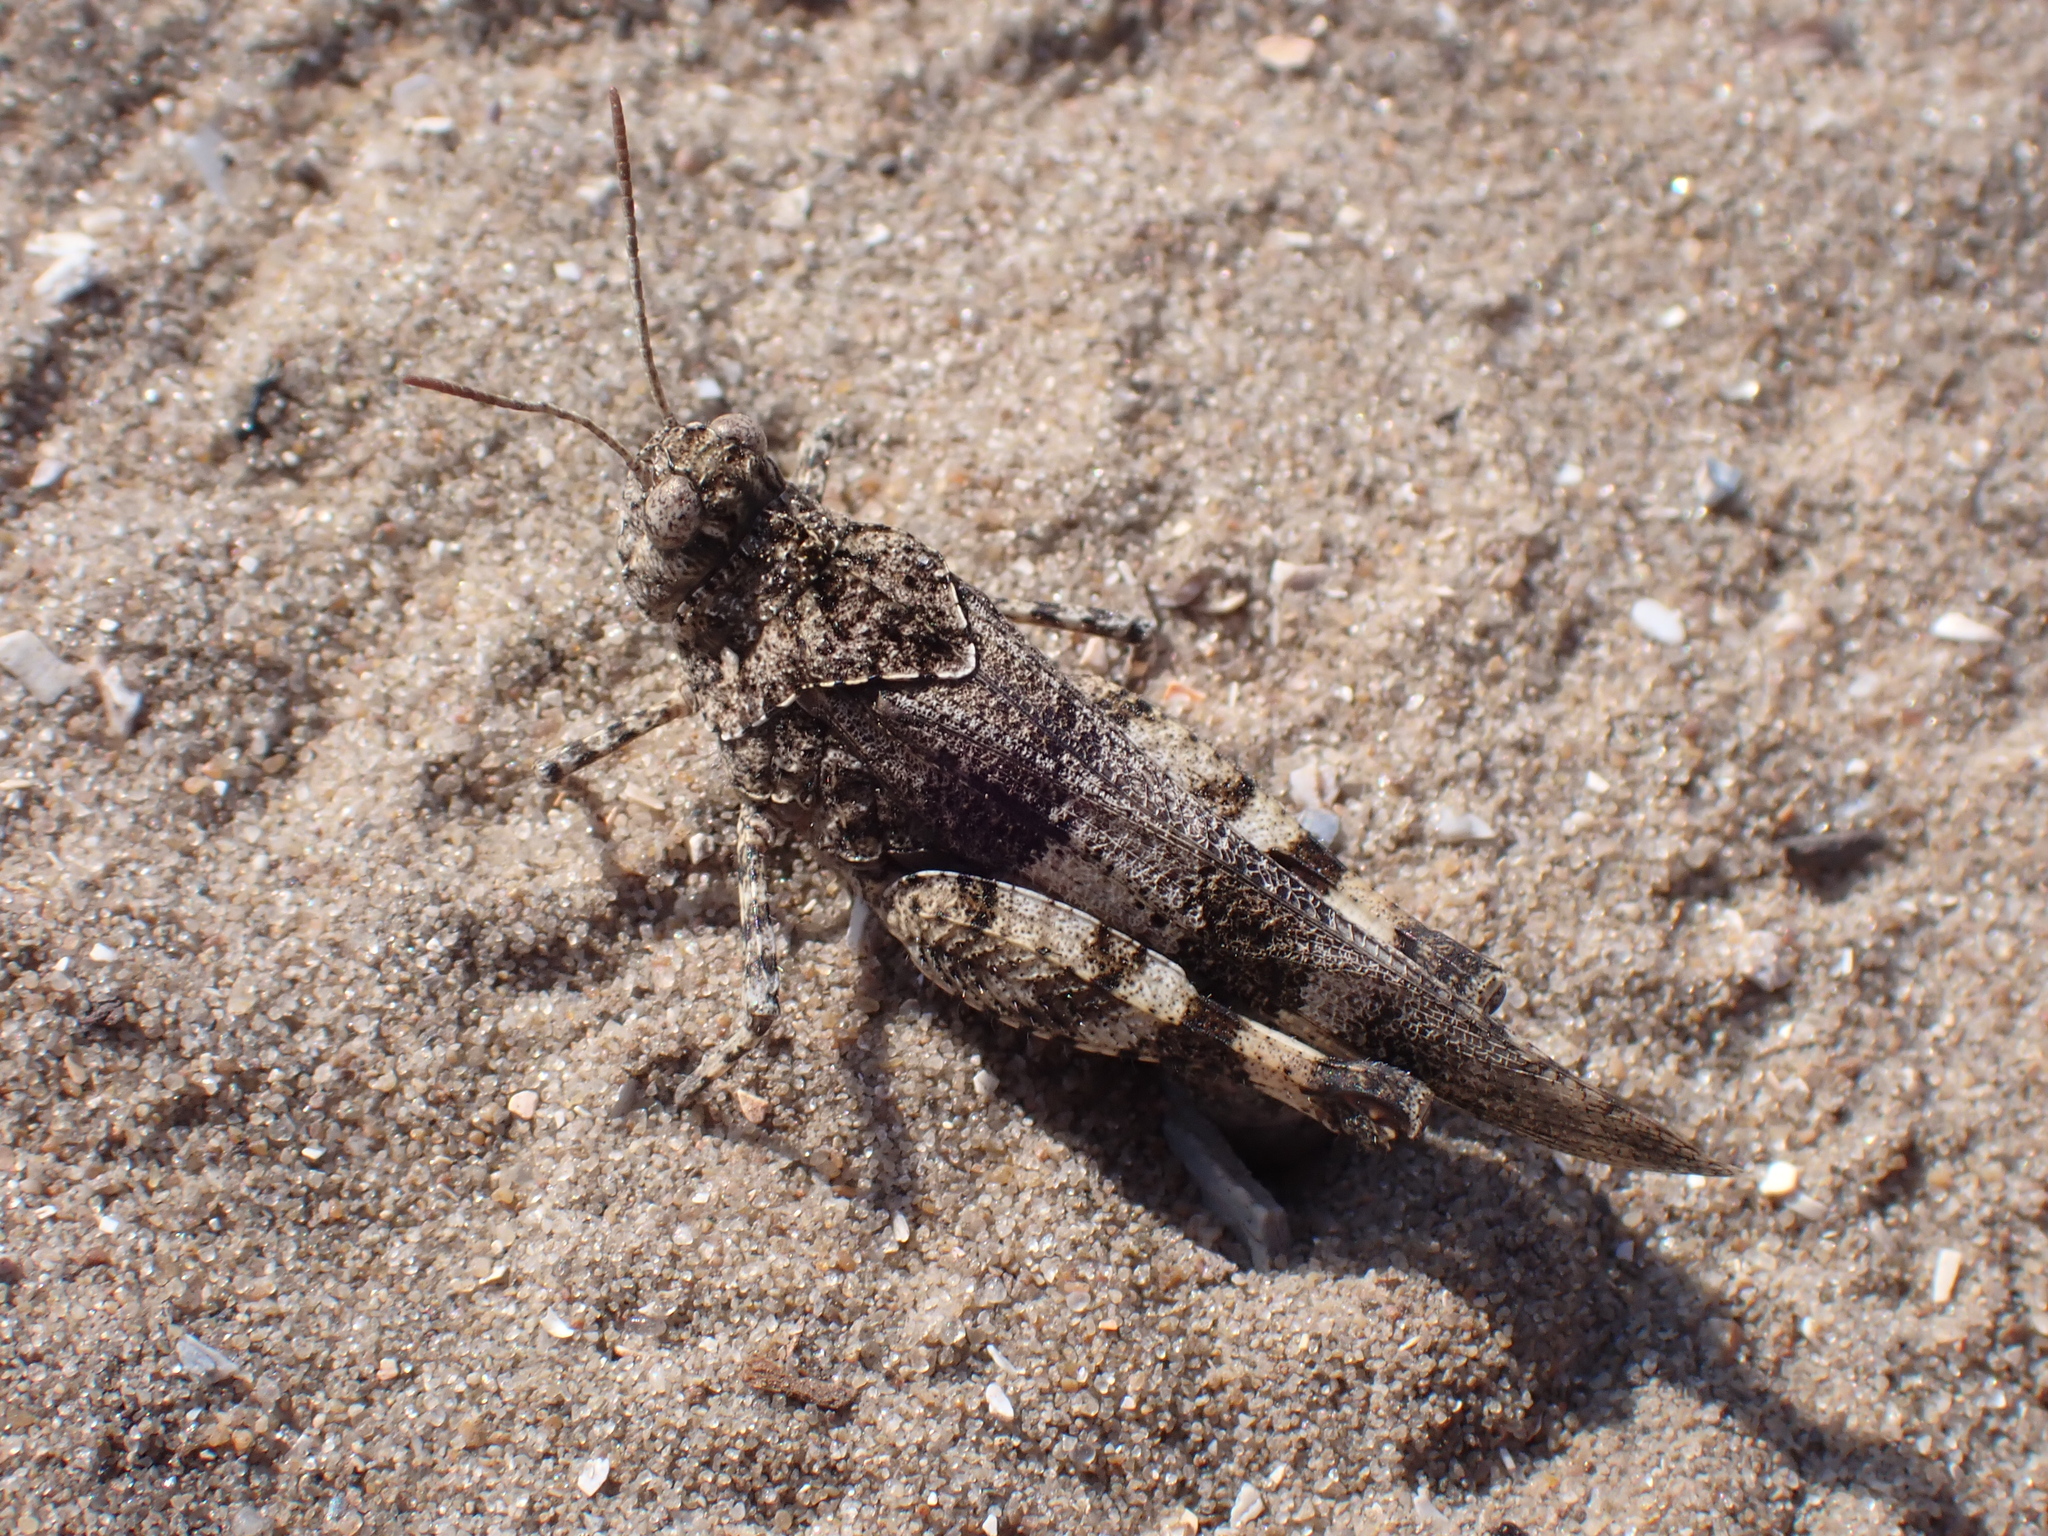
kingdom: Animalia
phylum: Arthropoda
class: Insecta
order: Orthoptera
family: Acrididae
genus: Oedipoda
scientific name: Oedipoda caerulescens
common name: Blue-winged grasshopper
